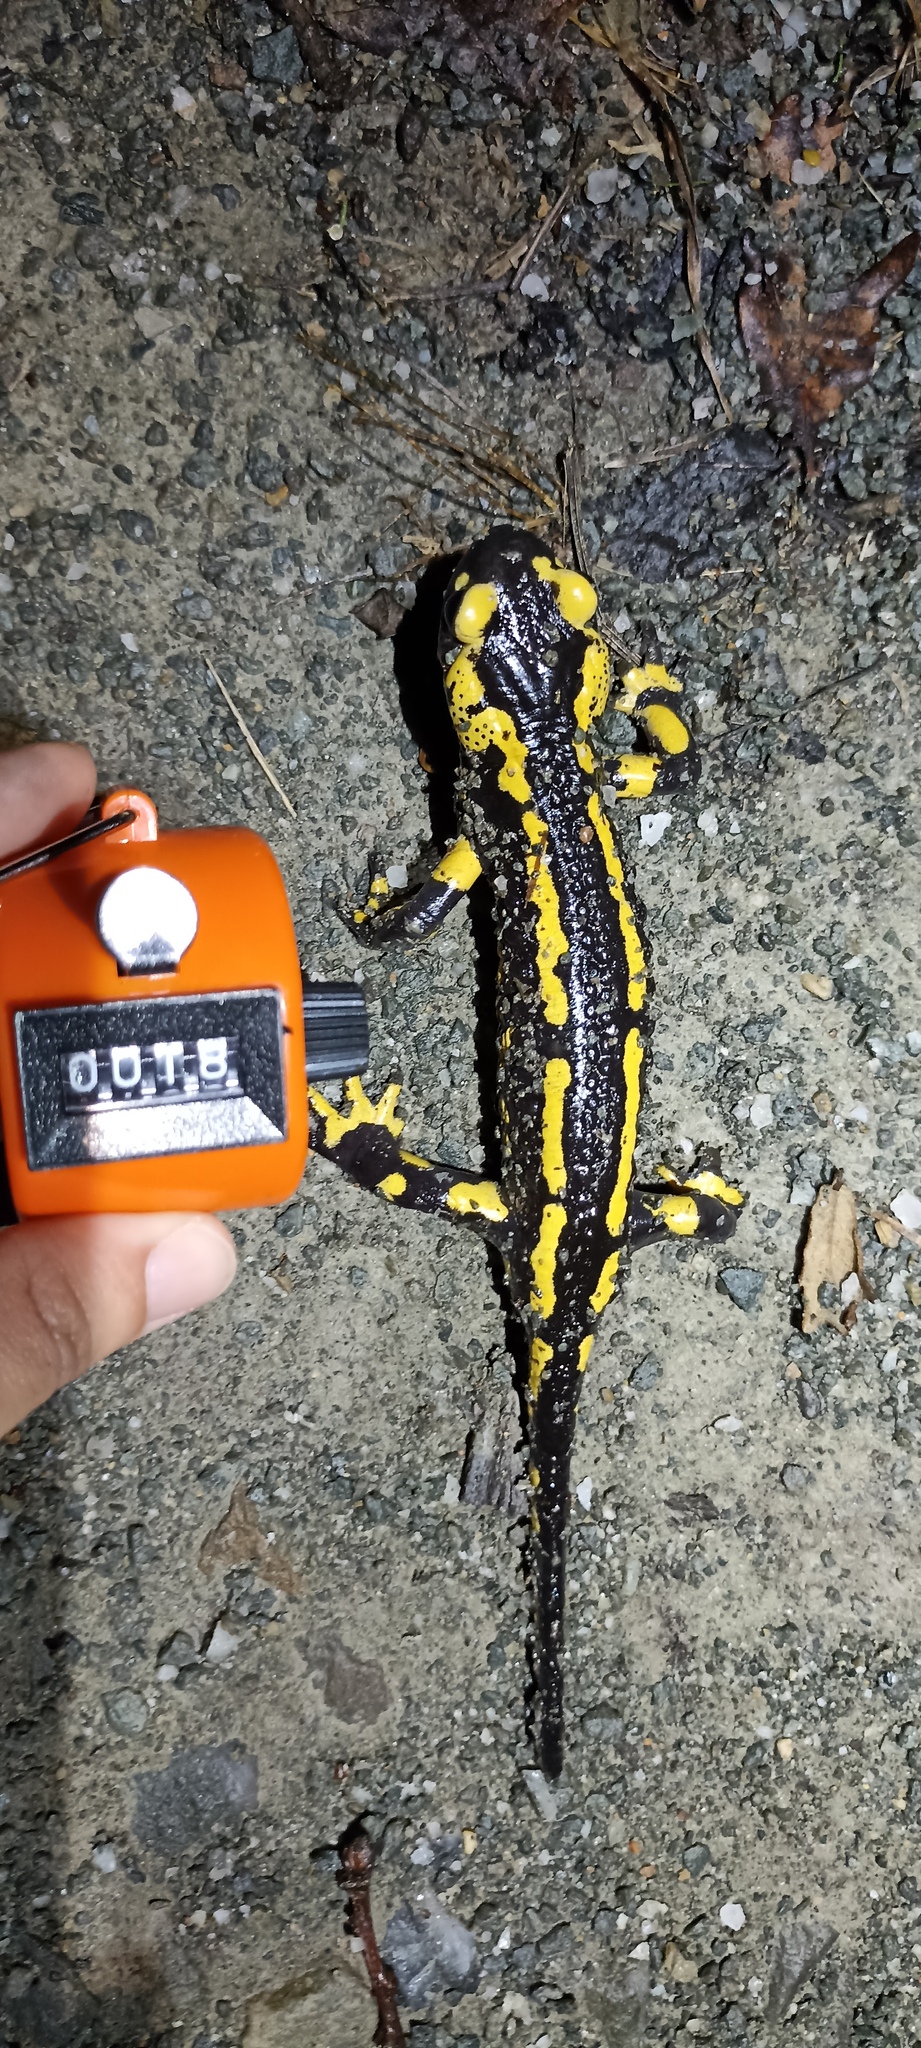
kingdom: Animalia
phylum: Chordata
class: Amphibia
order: Caudata
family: Salamandridae
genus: Salamandra
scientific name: Salamandra salamandra
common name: Fire salamander
